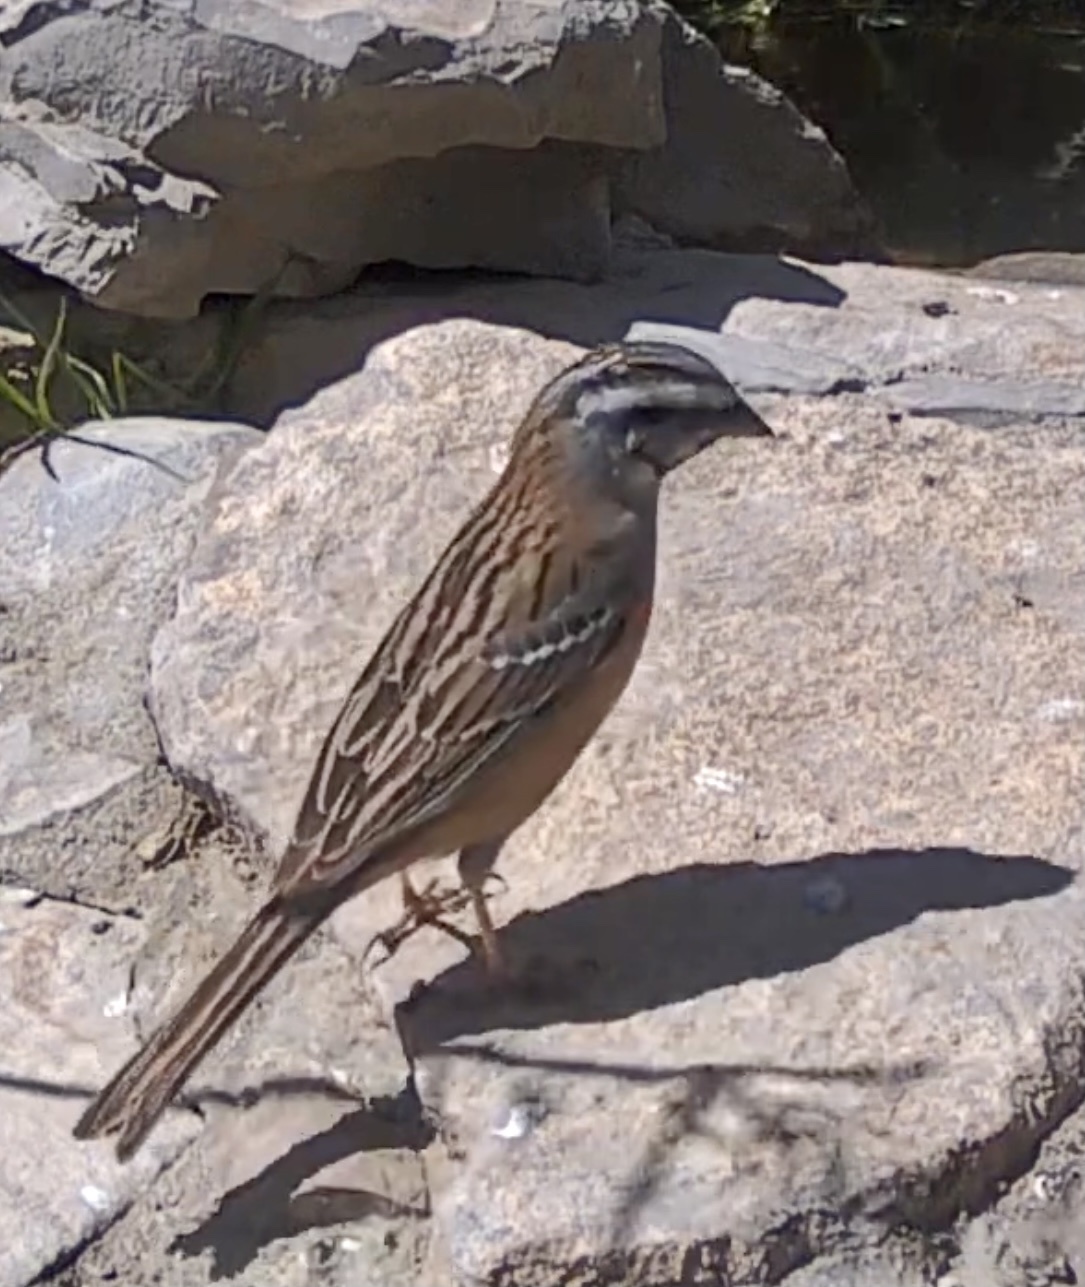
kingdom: Animalia
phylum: Chordata
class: Aves
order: Passeriformes
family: Emberizidae
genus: Emberiza
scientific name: Emberiza cia
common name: Rock bunting
